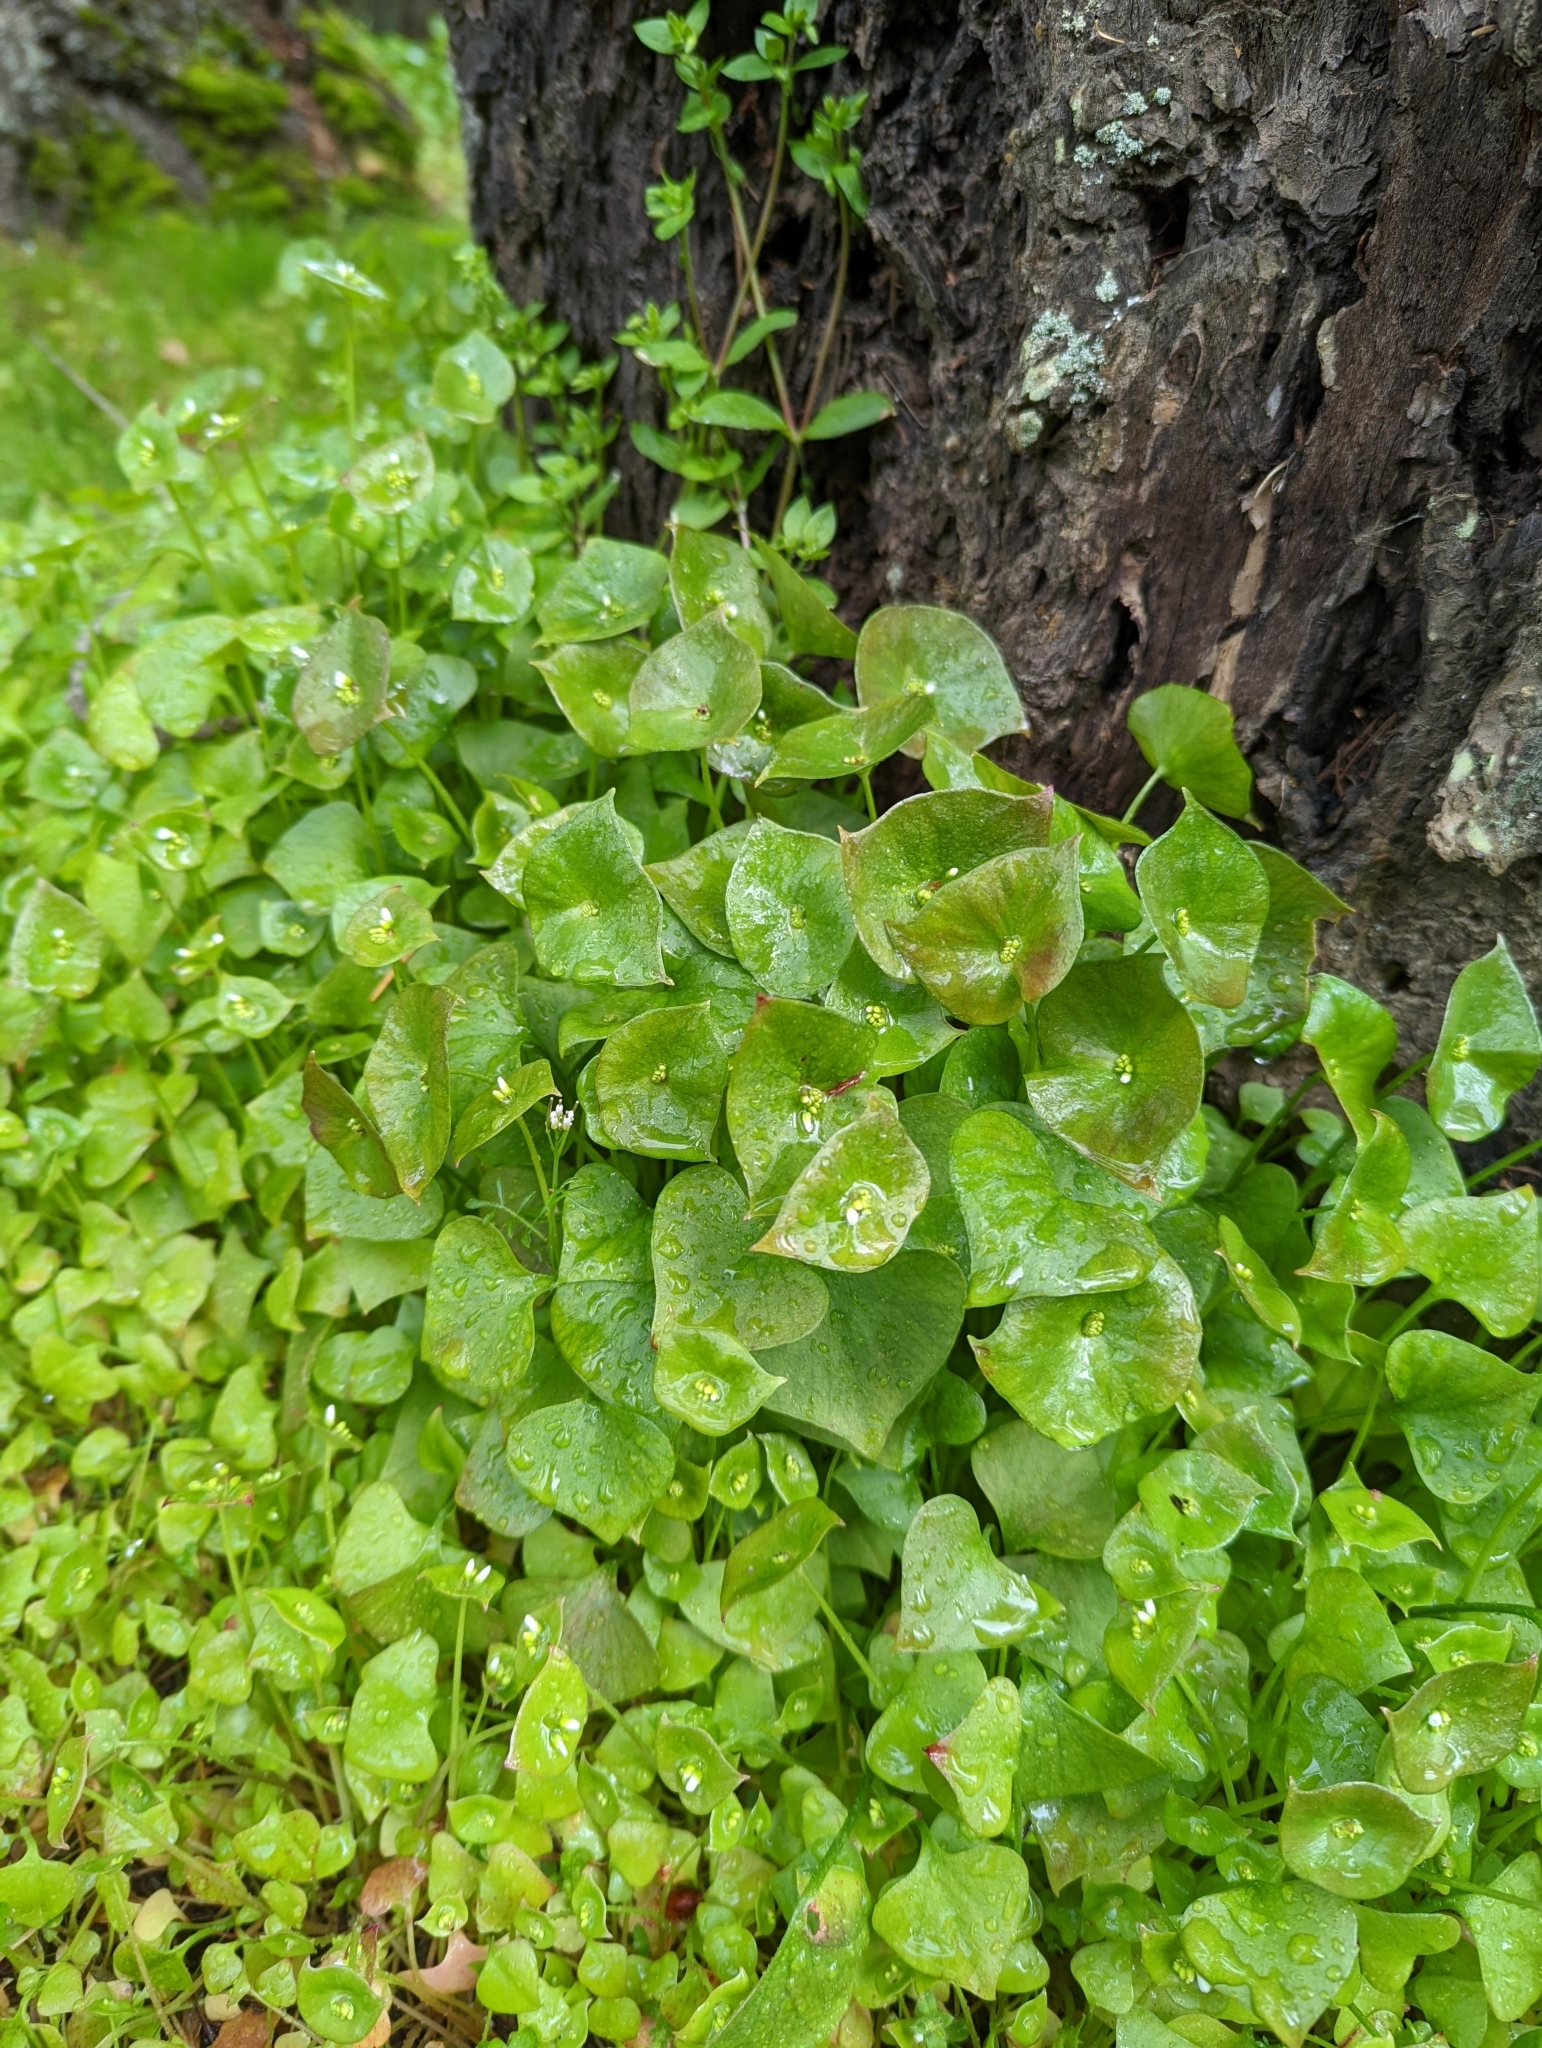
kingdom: Plantae
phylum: Tracheophyta
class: Magnoliopsida
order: Caryophyllales
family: Montiaceae
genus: Claytonia
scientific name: Claytonia perfoliata
